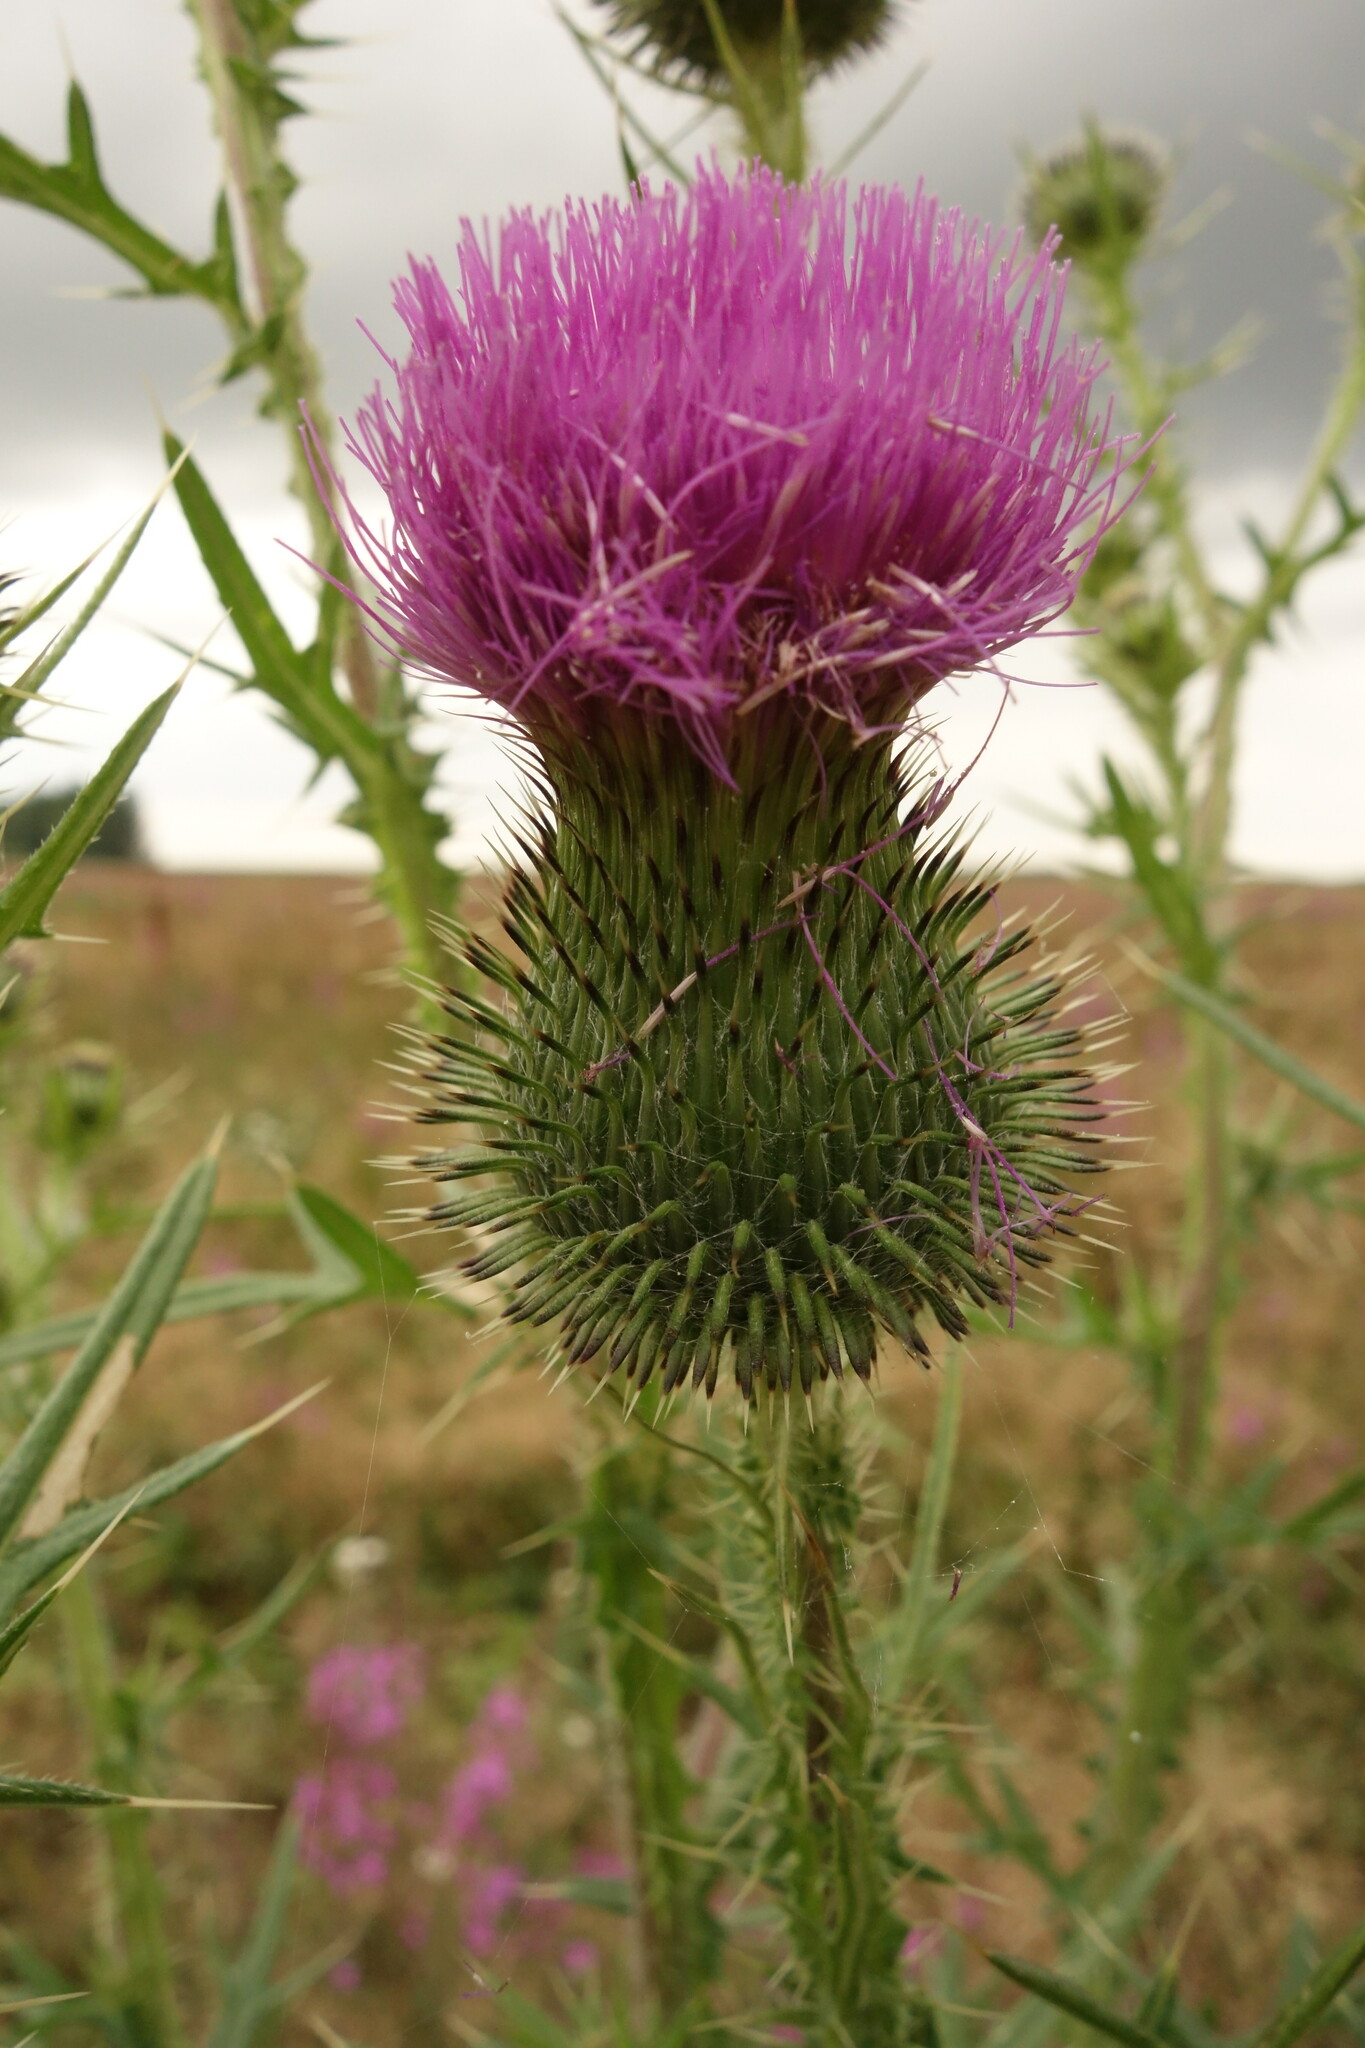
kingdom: Plantae
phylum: Tracheophyta
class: Magnoliopsida
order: Asterales
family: Asteraceae
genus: Cirsium
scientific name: Cirsium vulgare
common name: Bull thistle
